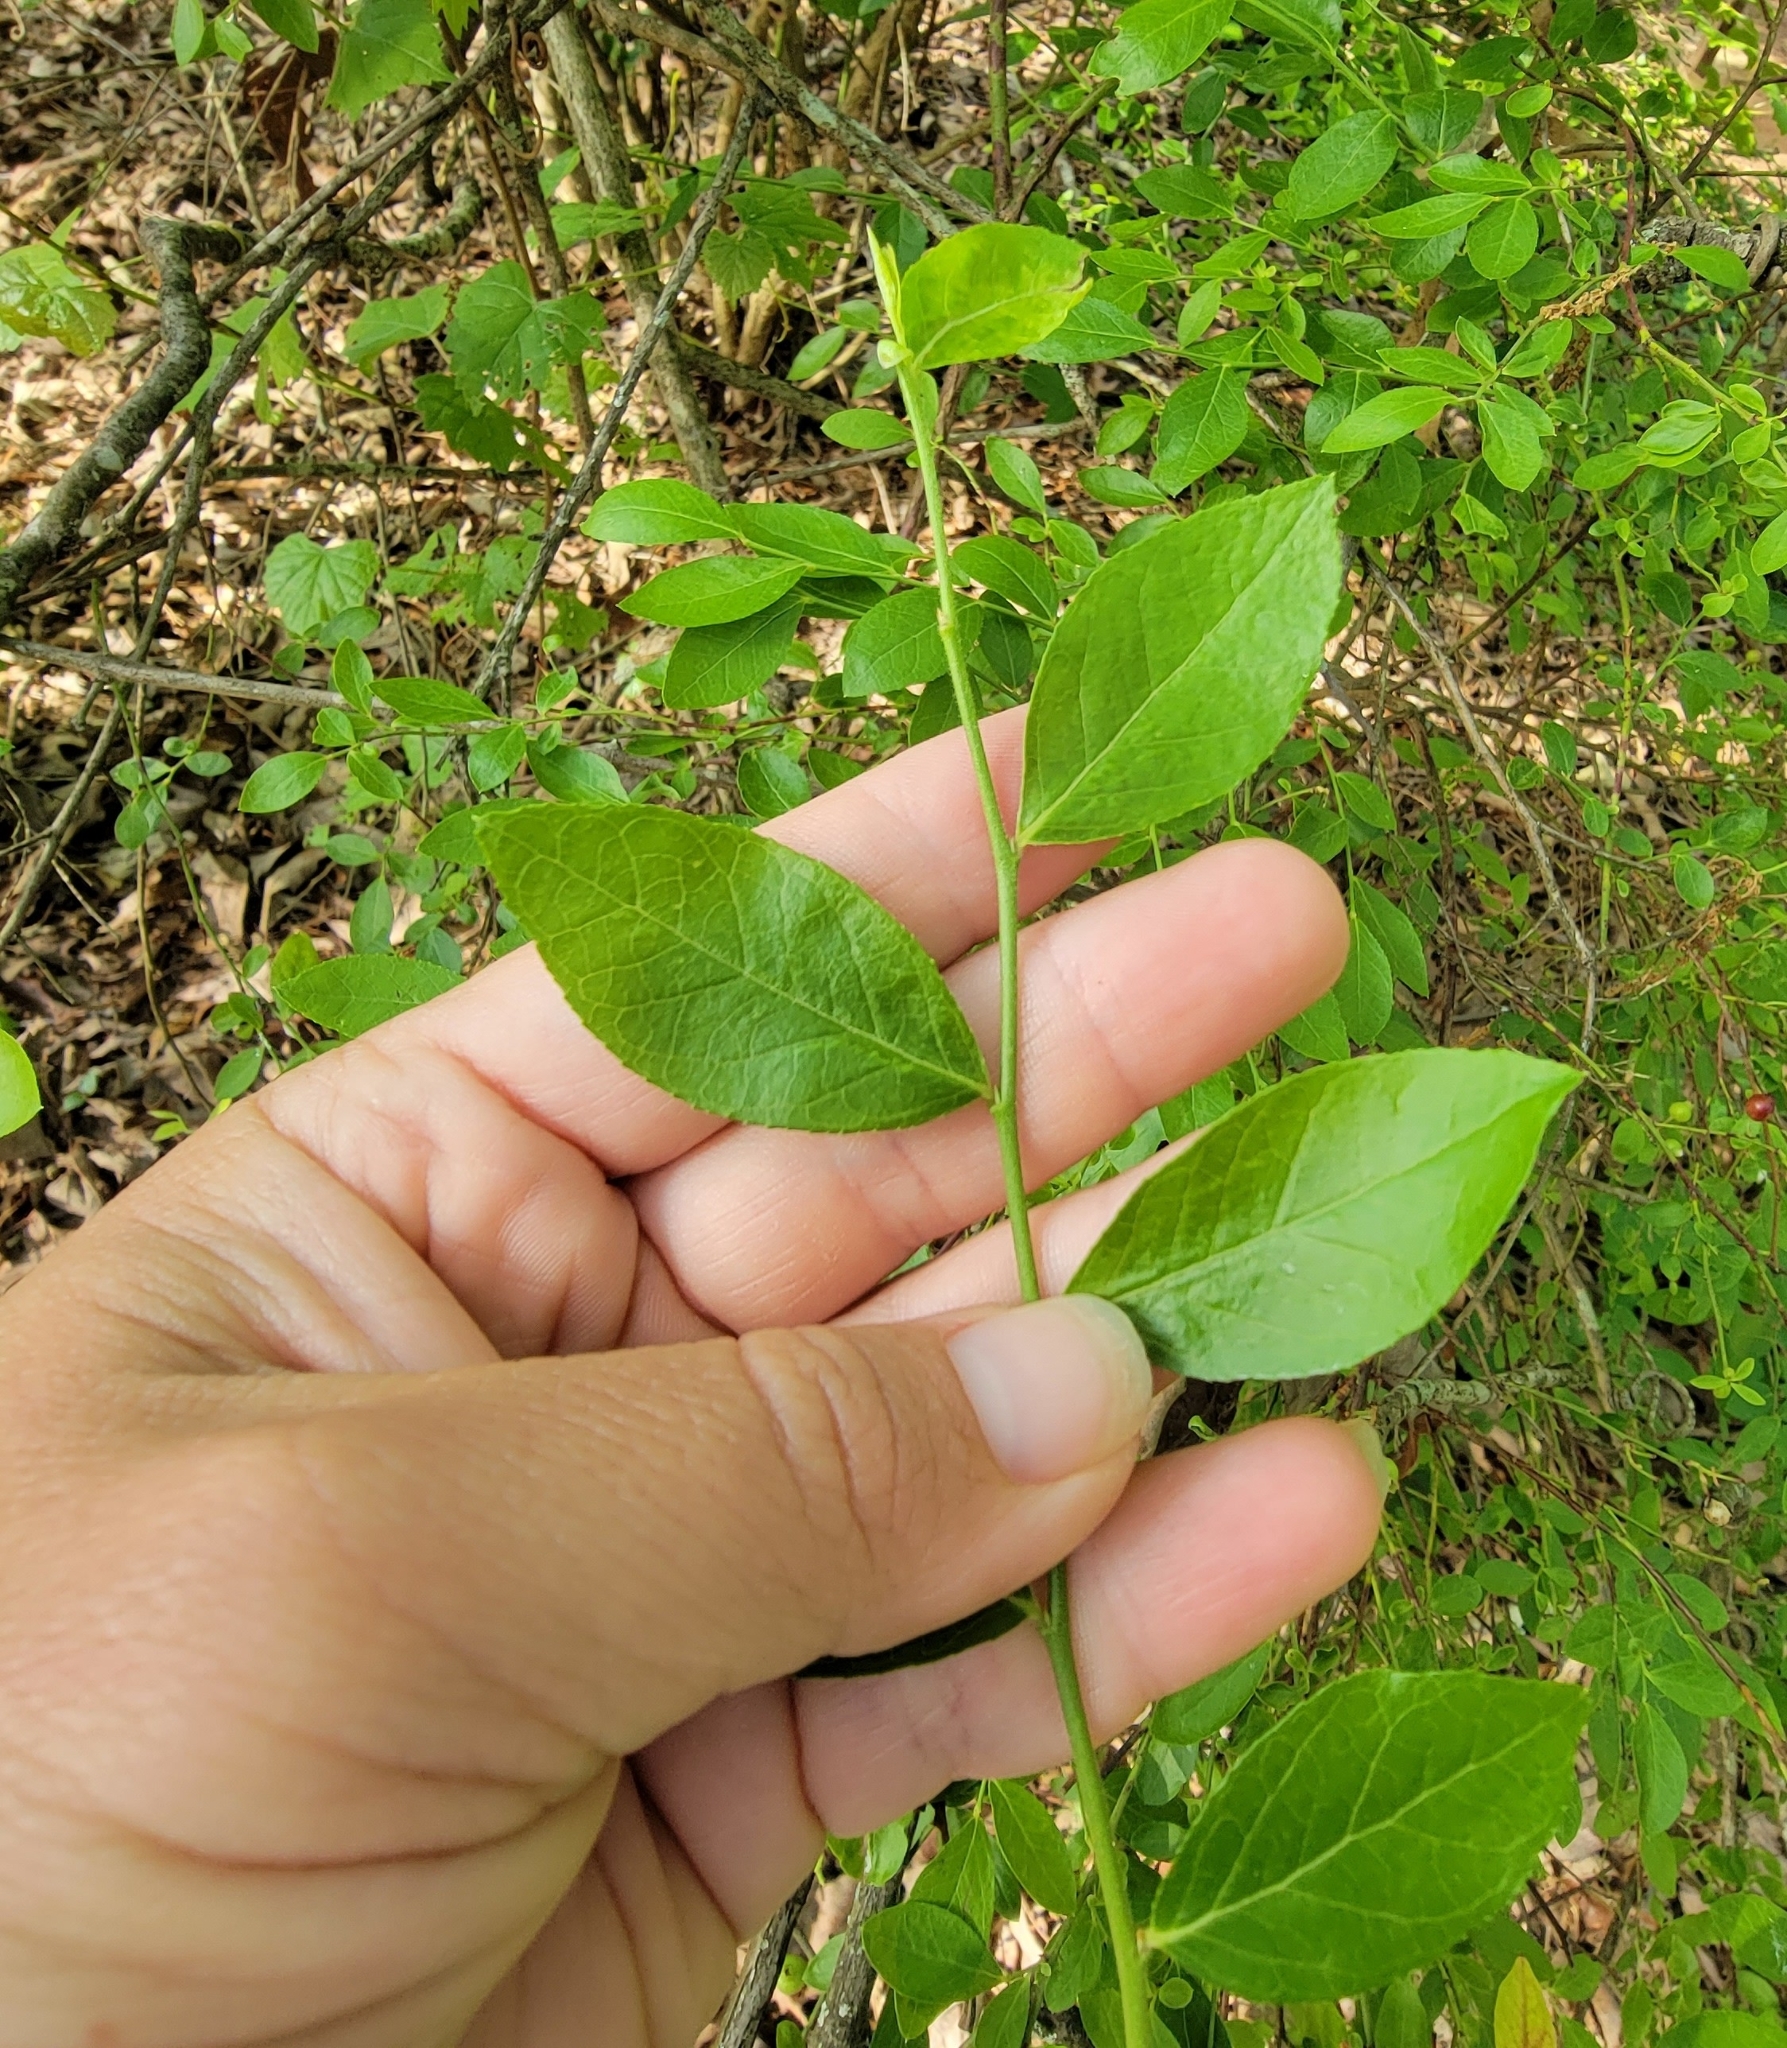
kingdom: Plantae
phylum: Tracheophyta
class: Magnoliopsida
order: Ericales
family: Ericaceae
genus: Vaccinium
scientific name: Vaccinium corymbosum
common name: Blueberry
